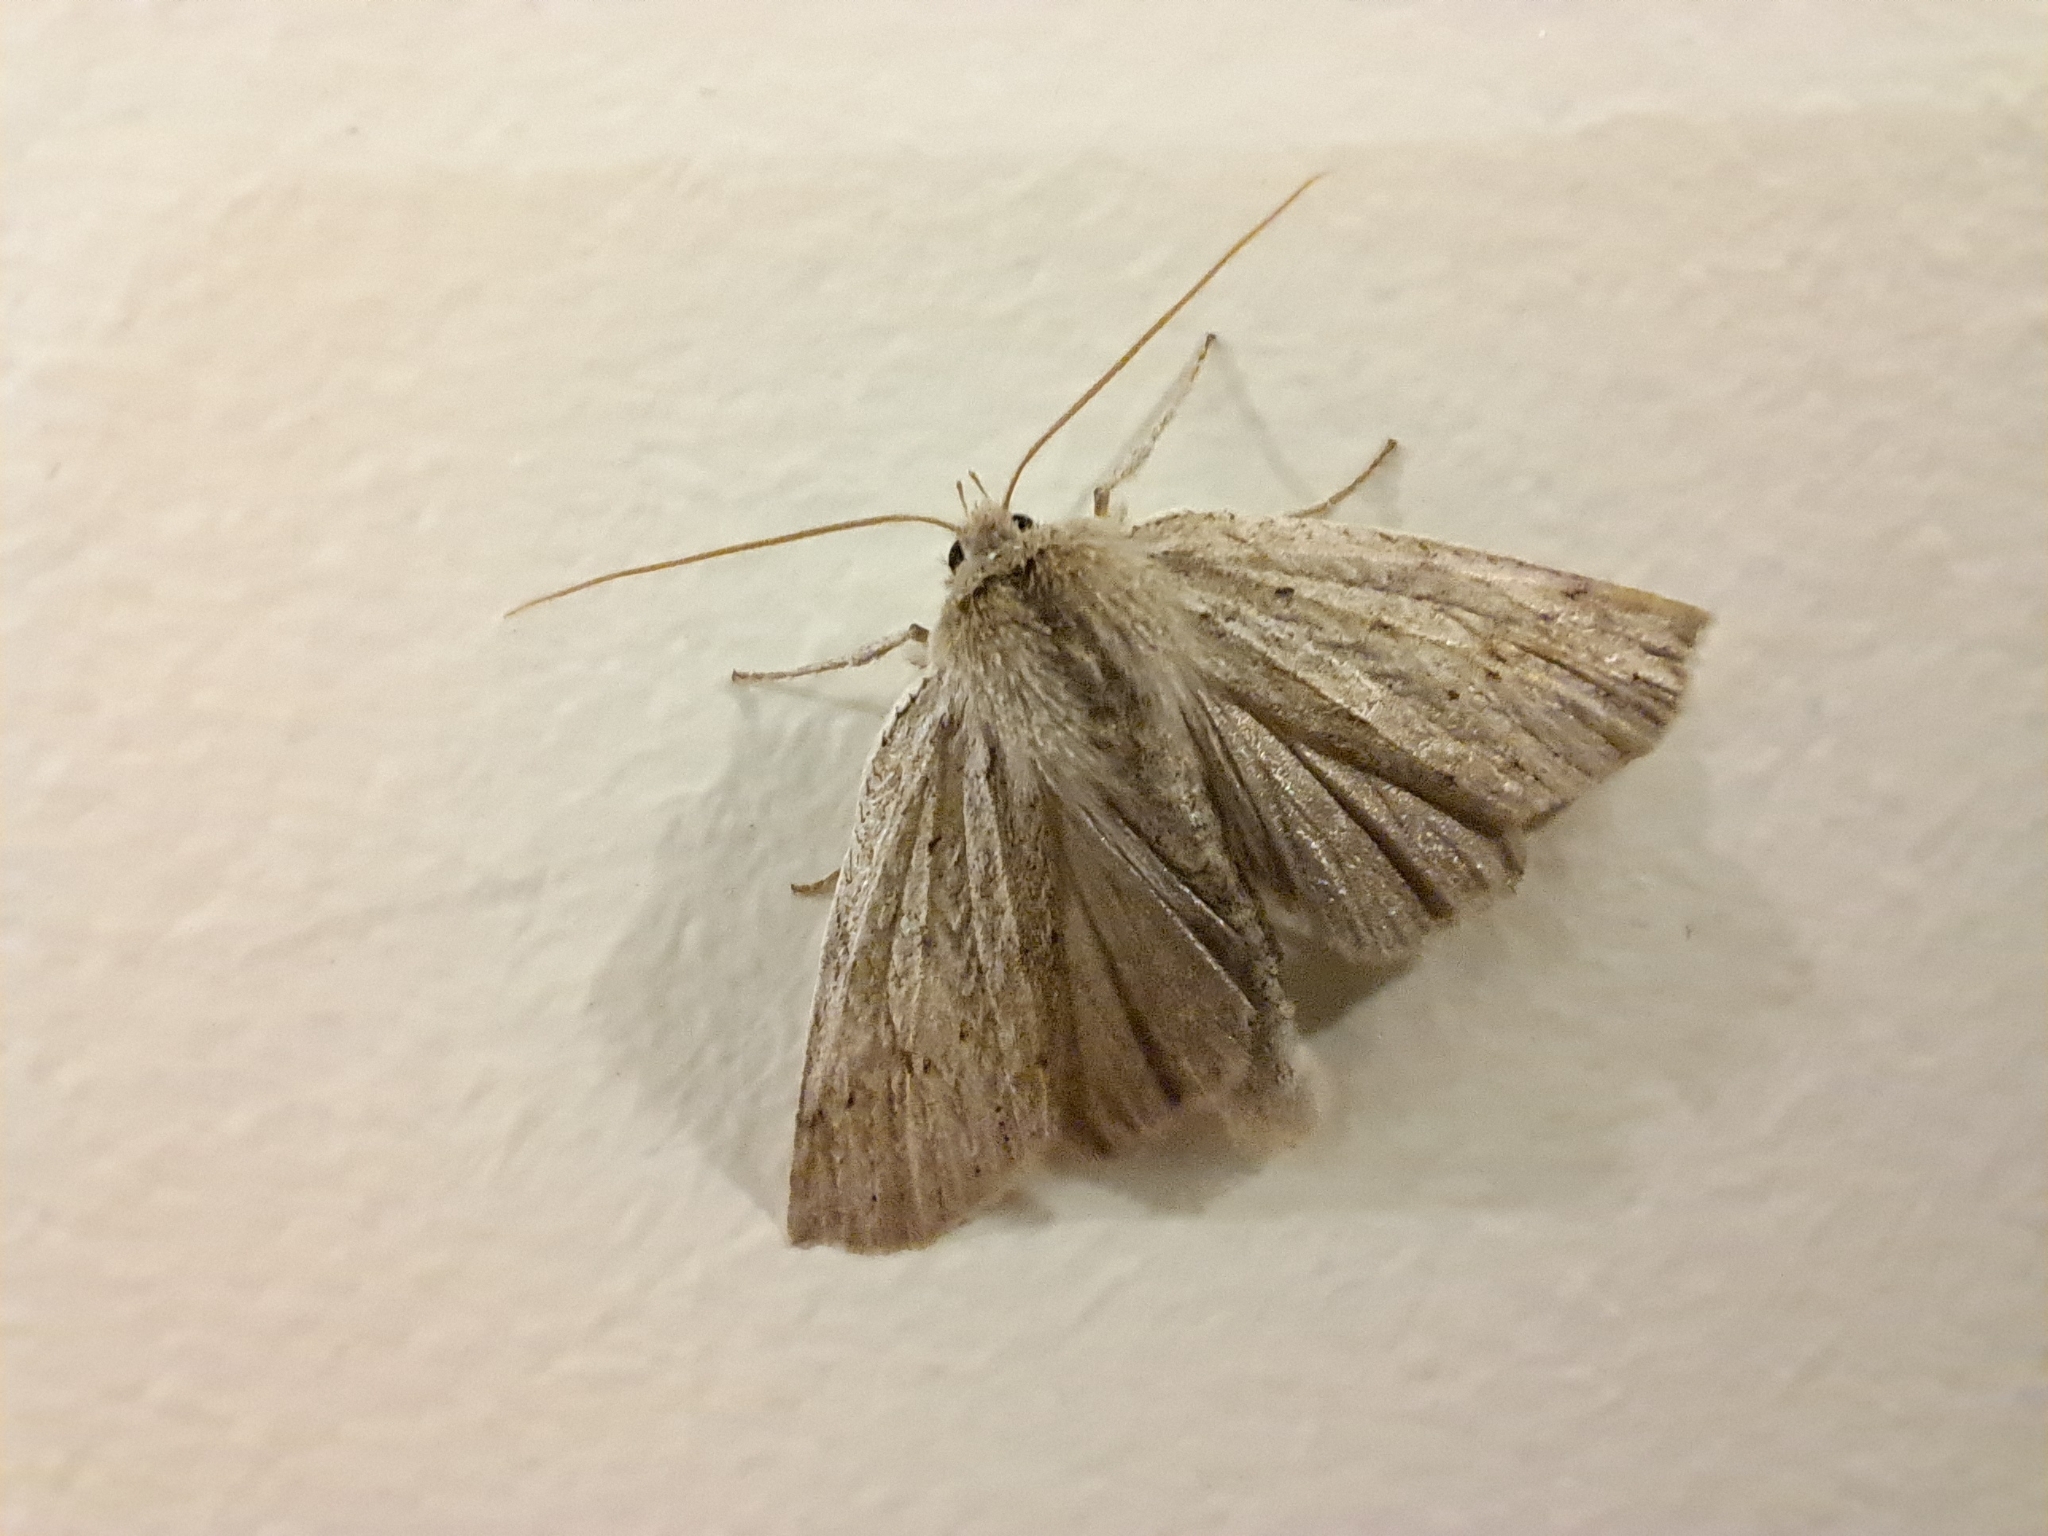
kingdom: Animalia
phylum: Arthropoda
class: Insecta
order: Lepidoptera
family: Geometridae
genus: Declana
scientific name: Declana leptomera
